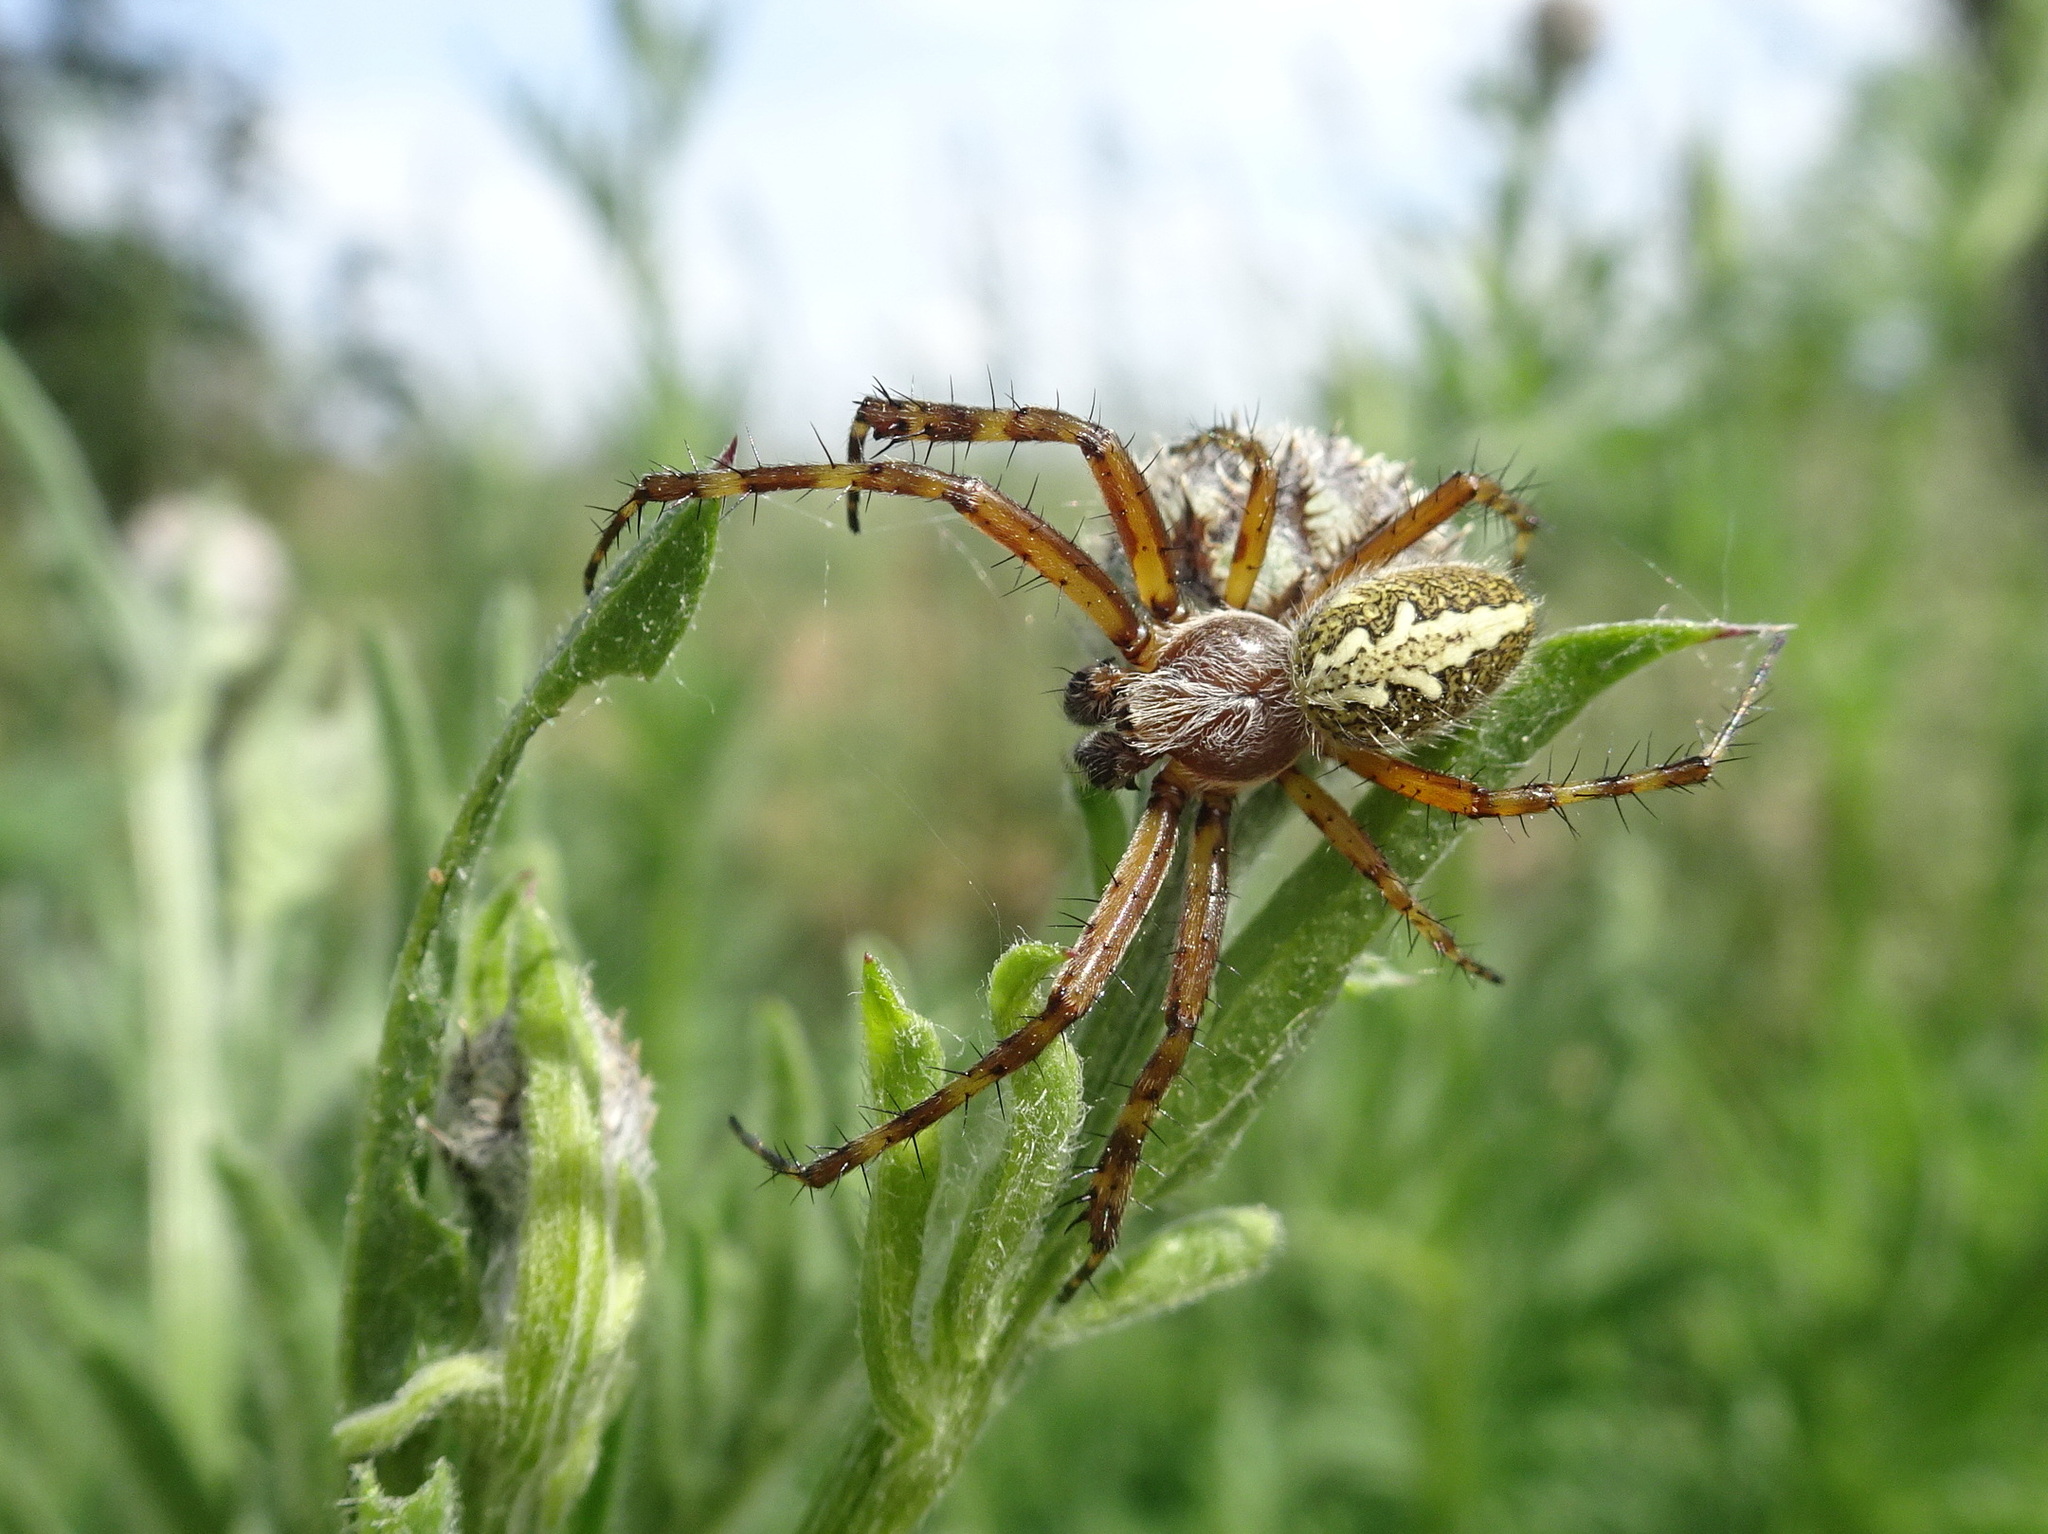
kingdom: Animalia
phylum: Arthropoda
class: Arachnida
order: Araneae
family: Araneidae
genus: Aculepeira
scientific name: Aculepeira ceropegia
